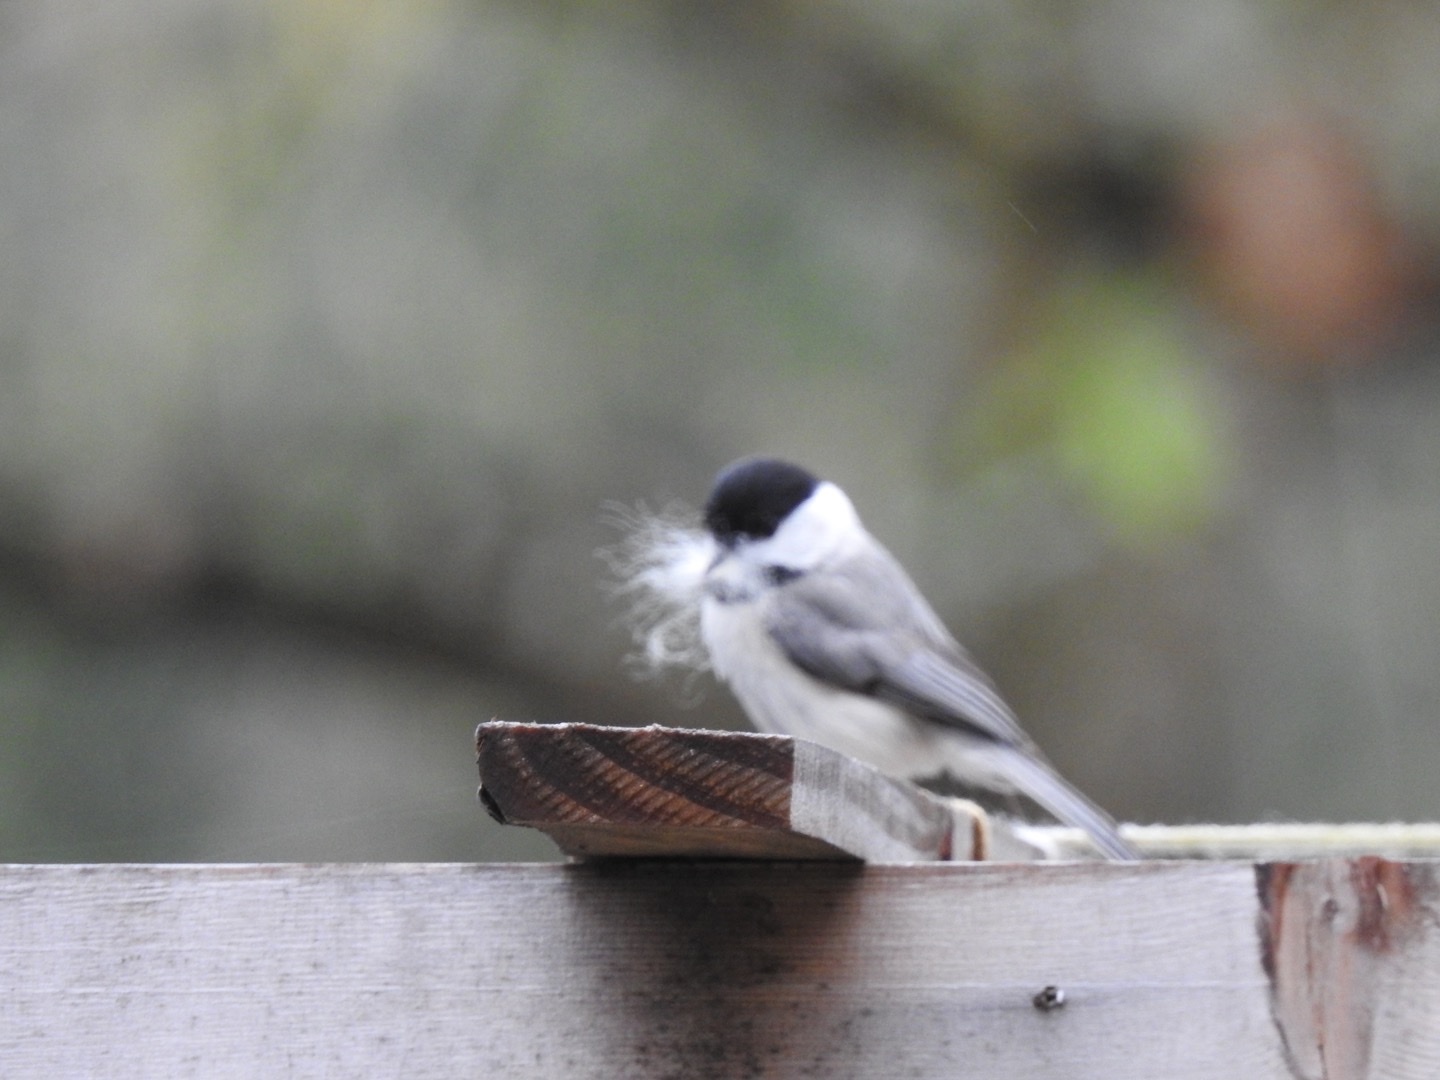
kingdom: Animalia
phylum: Chordata
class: Aves
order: Passeriformes
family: Paridae
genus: Poecile
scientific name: Poecile carolinensis
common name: Carolina chickadee
